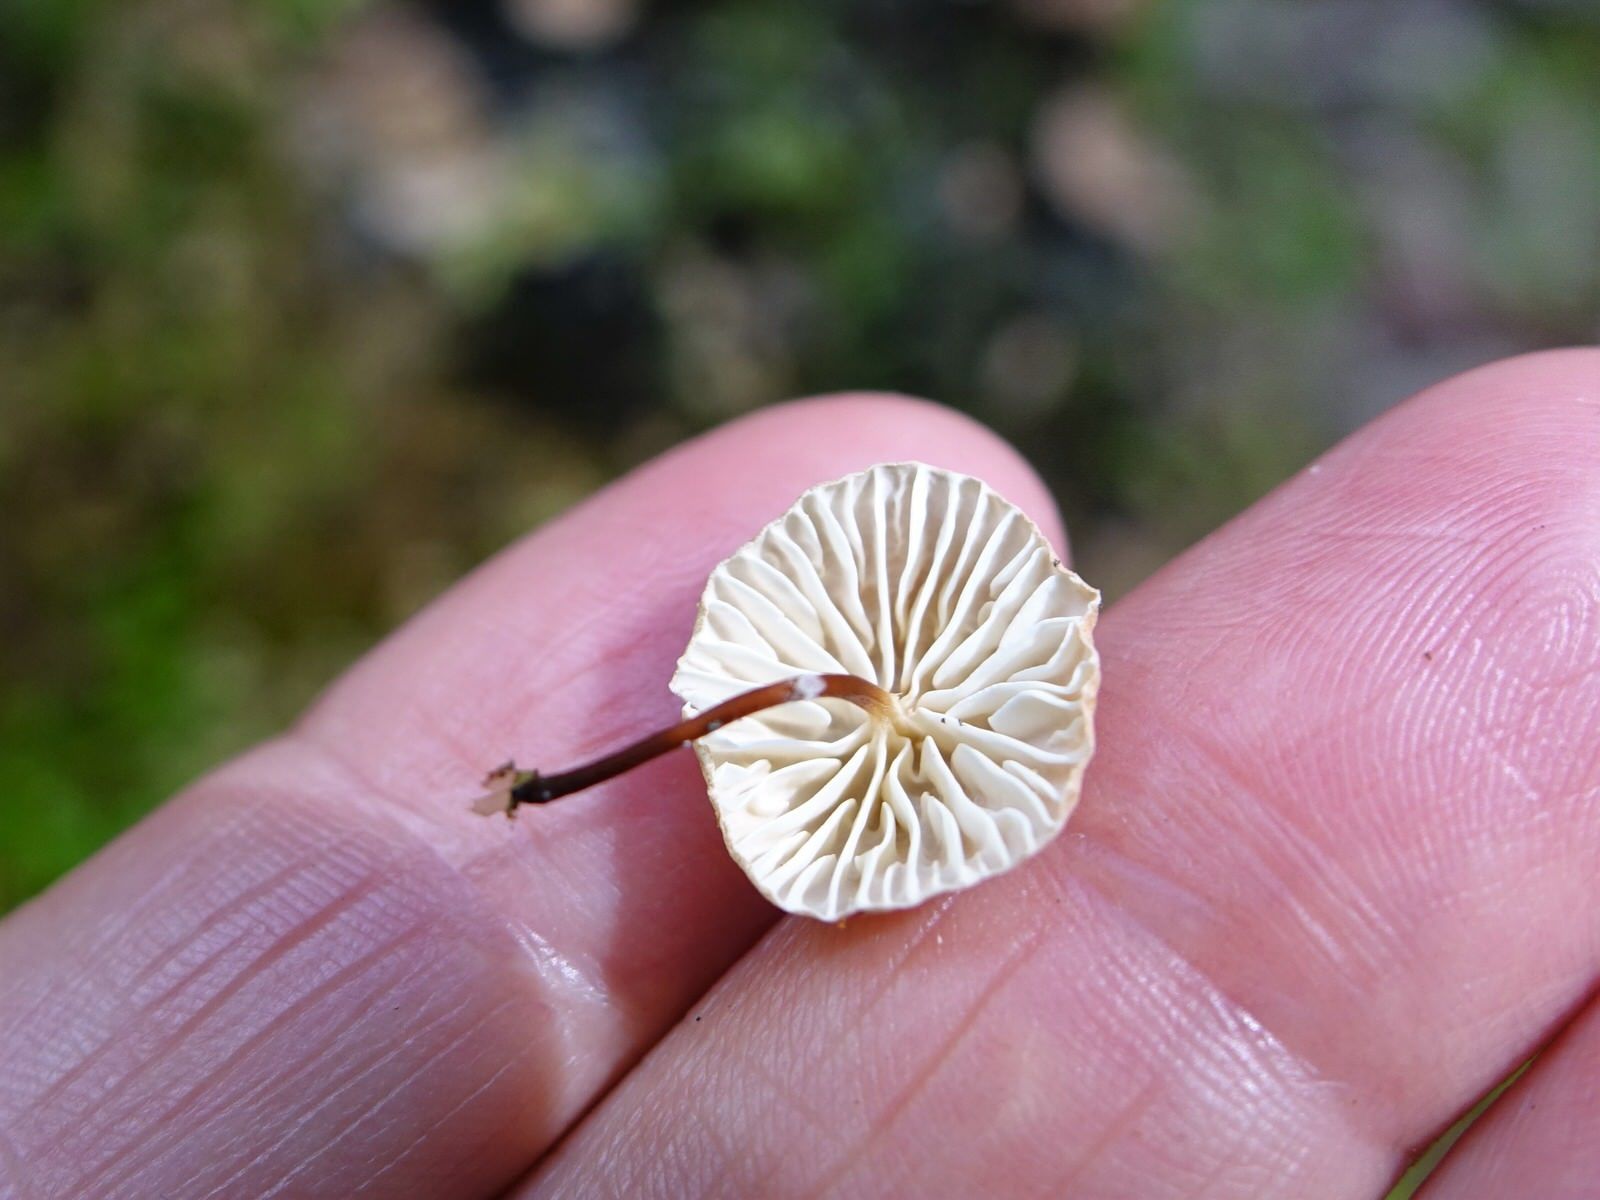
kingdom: Fungi
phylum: Basidiomycota
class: Agaricomycetes
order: Agaricales
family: Omphalotaceae
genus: Mycetinis
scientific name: Mycetinis curraniae
